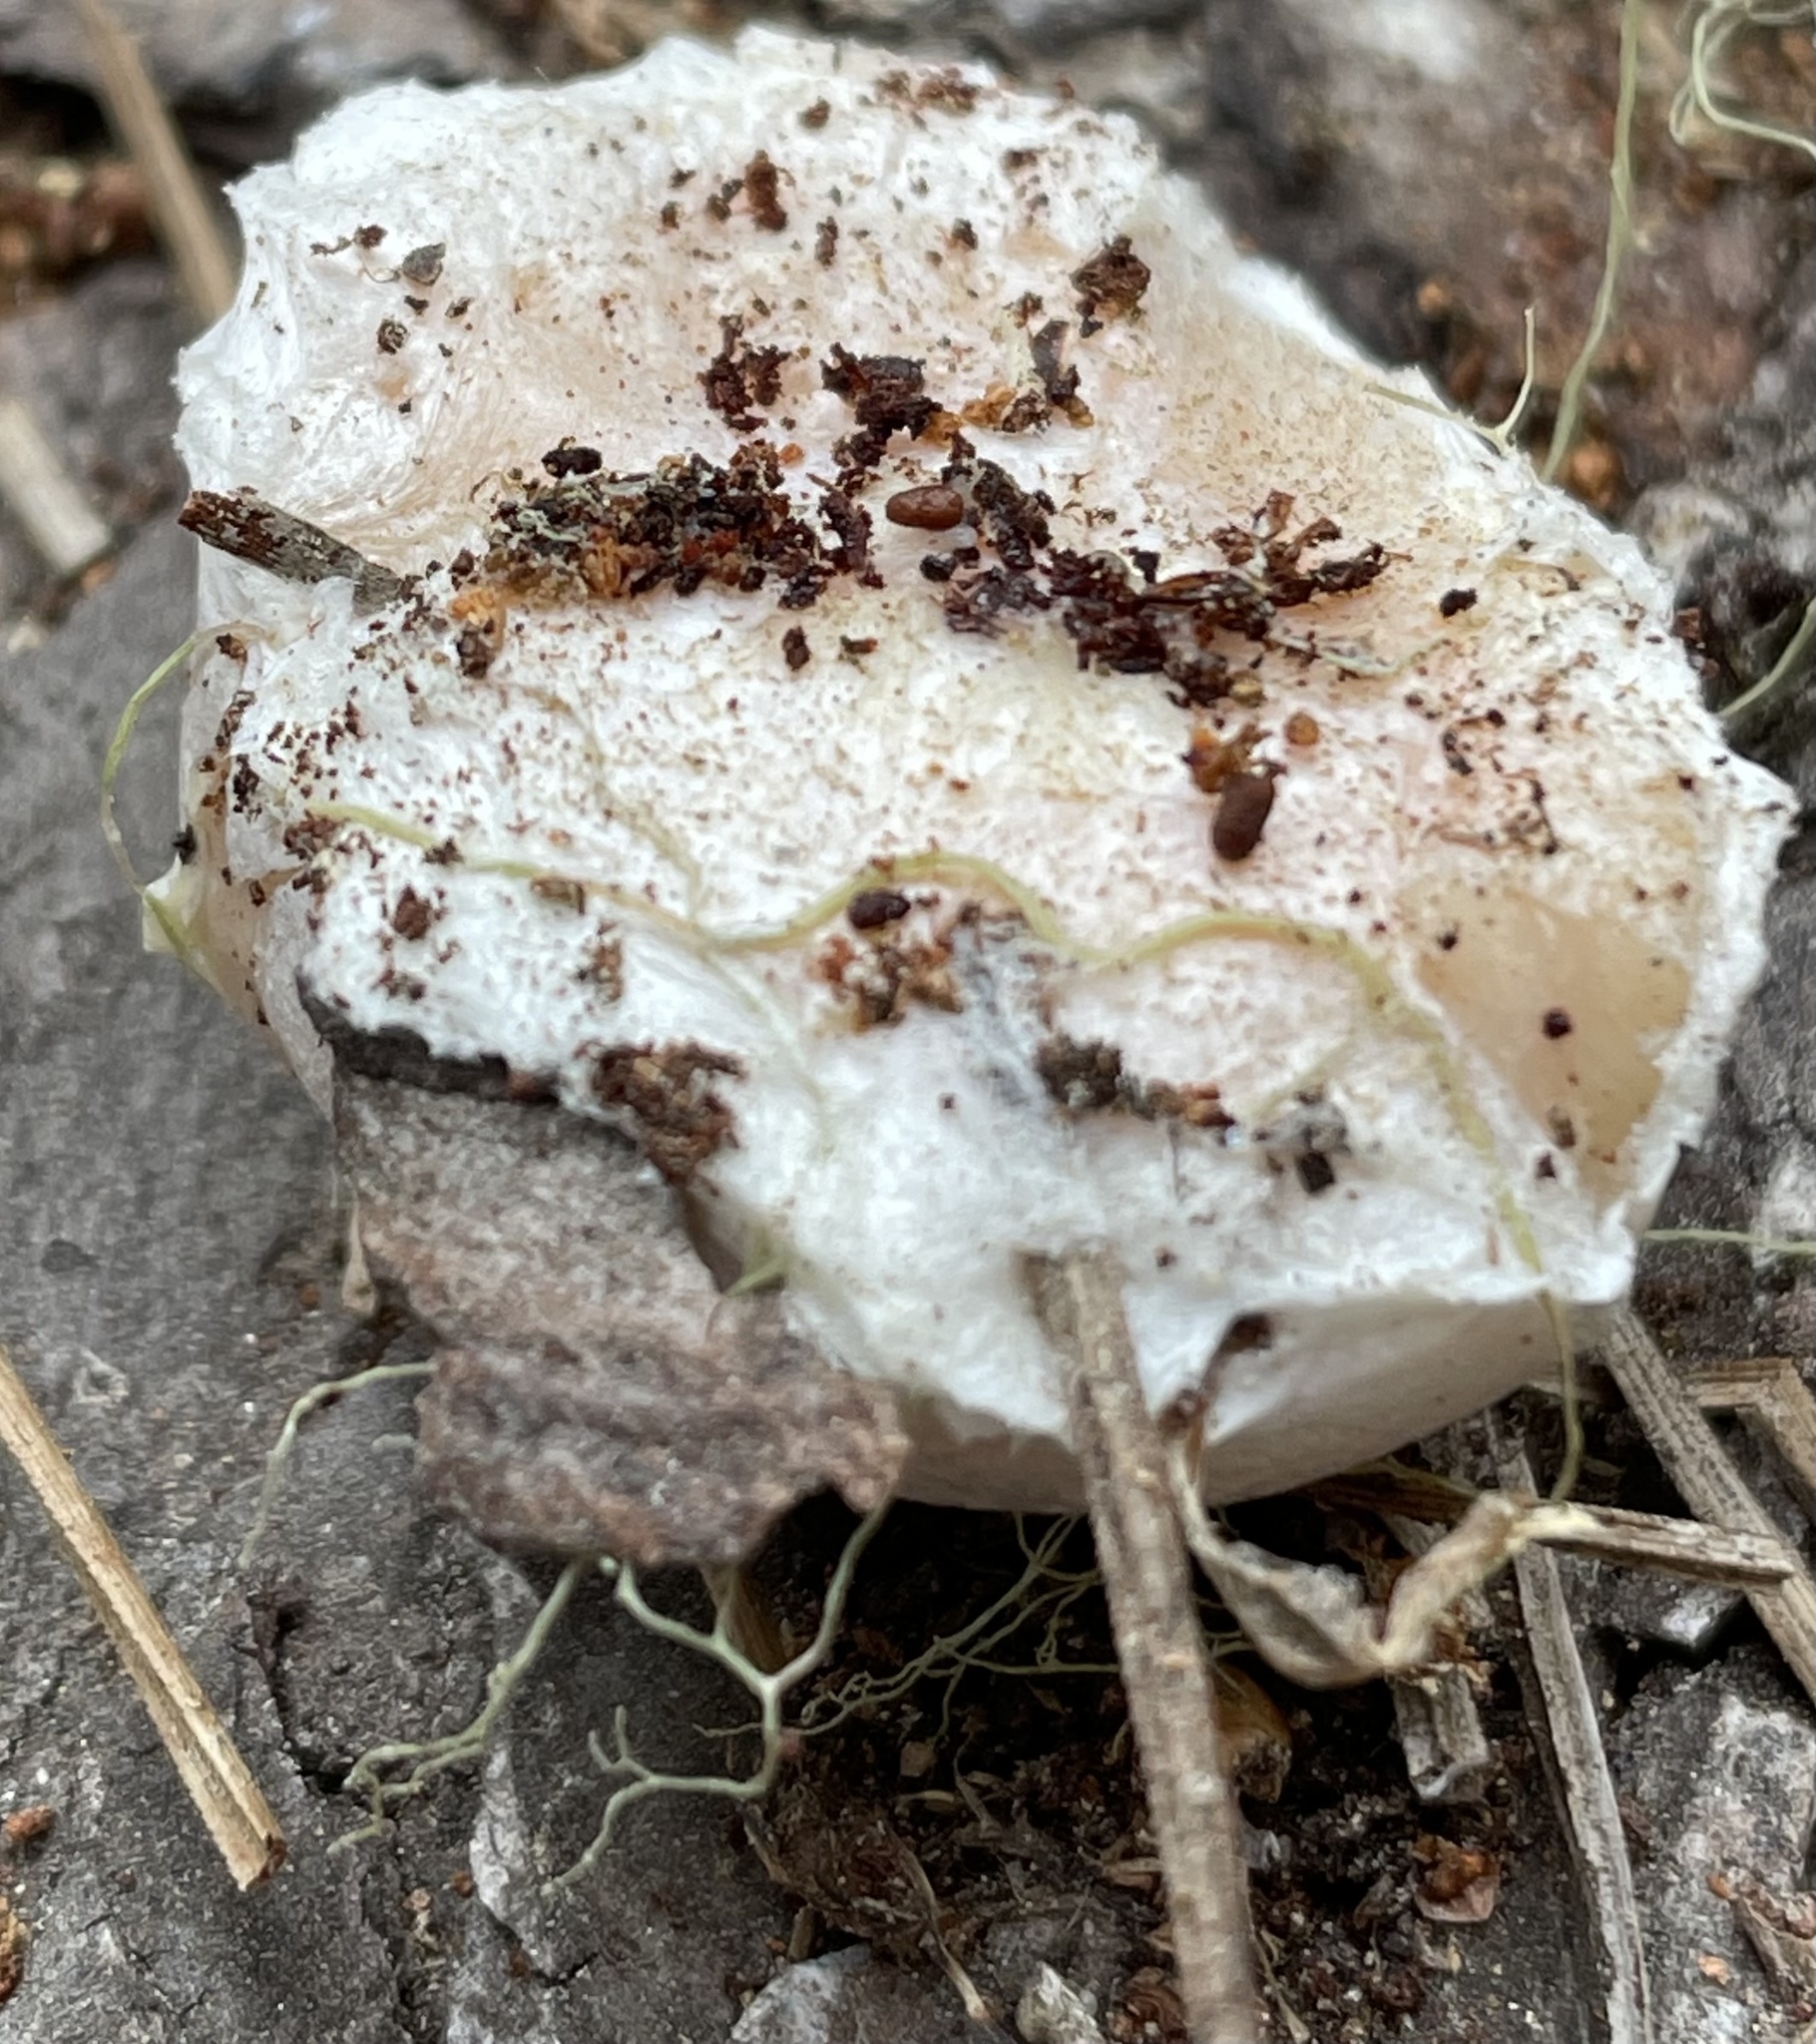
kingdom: Protozoa
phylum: Mycetozoa
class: Myxomycetes
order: Cribrariales
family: Tubiferaceae
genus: Reticularia
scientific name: Reticularia lycoperdon
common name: False puffball
